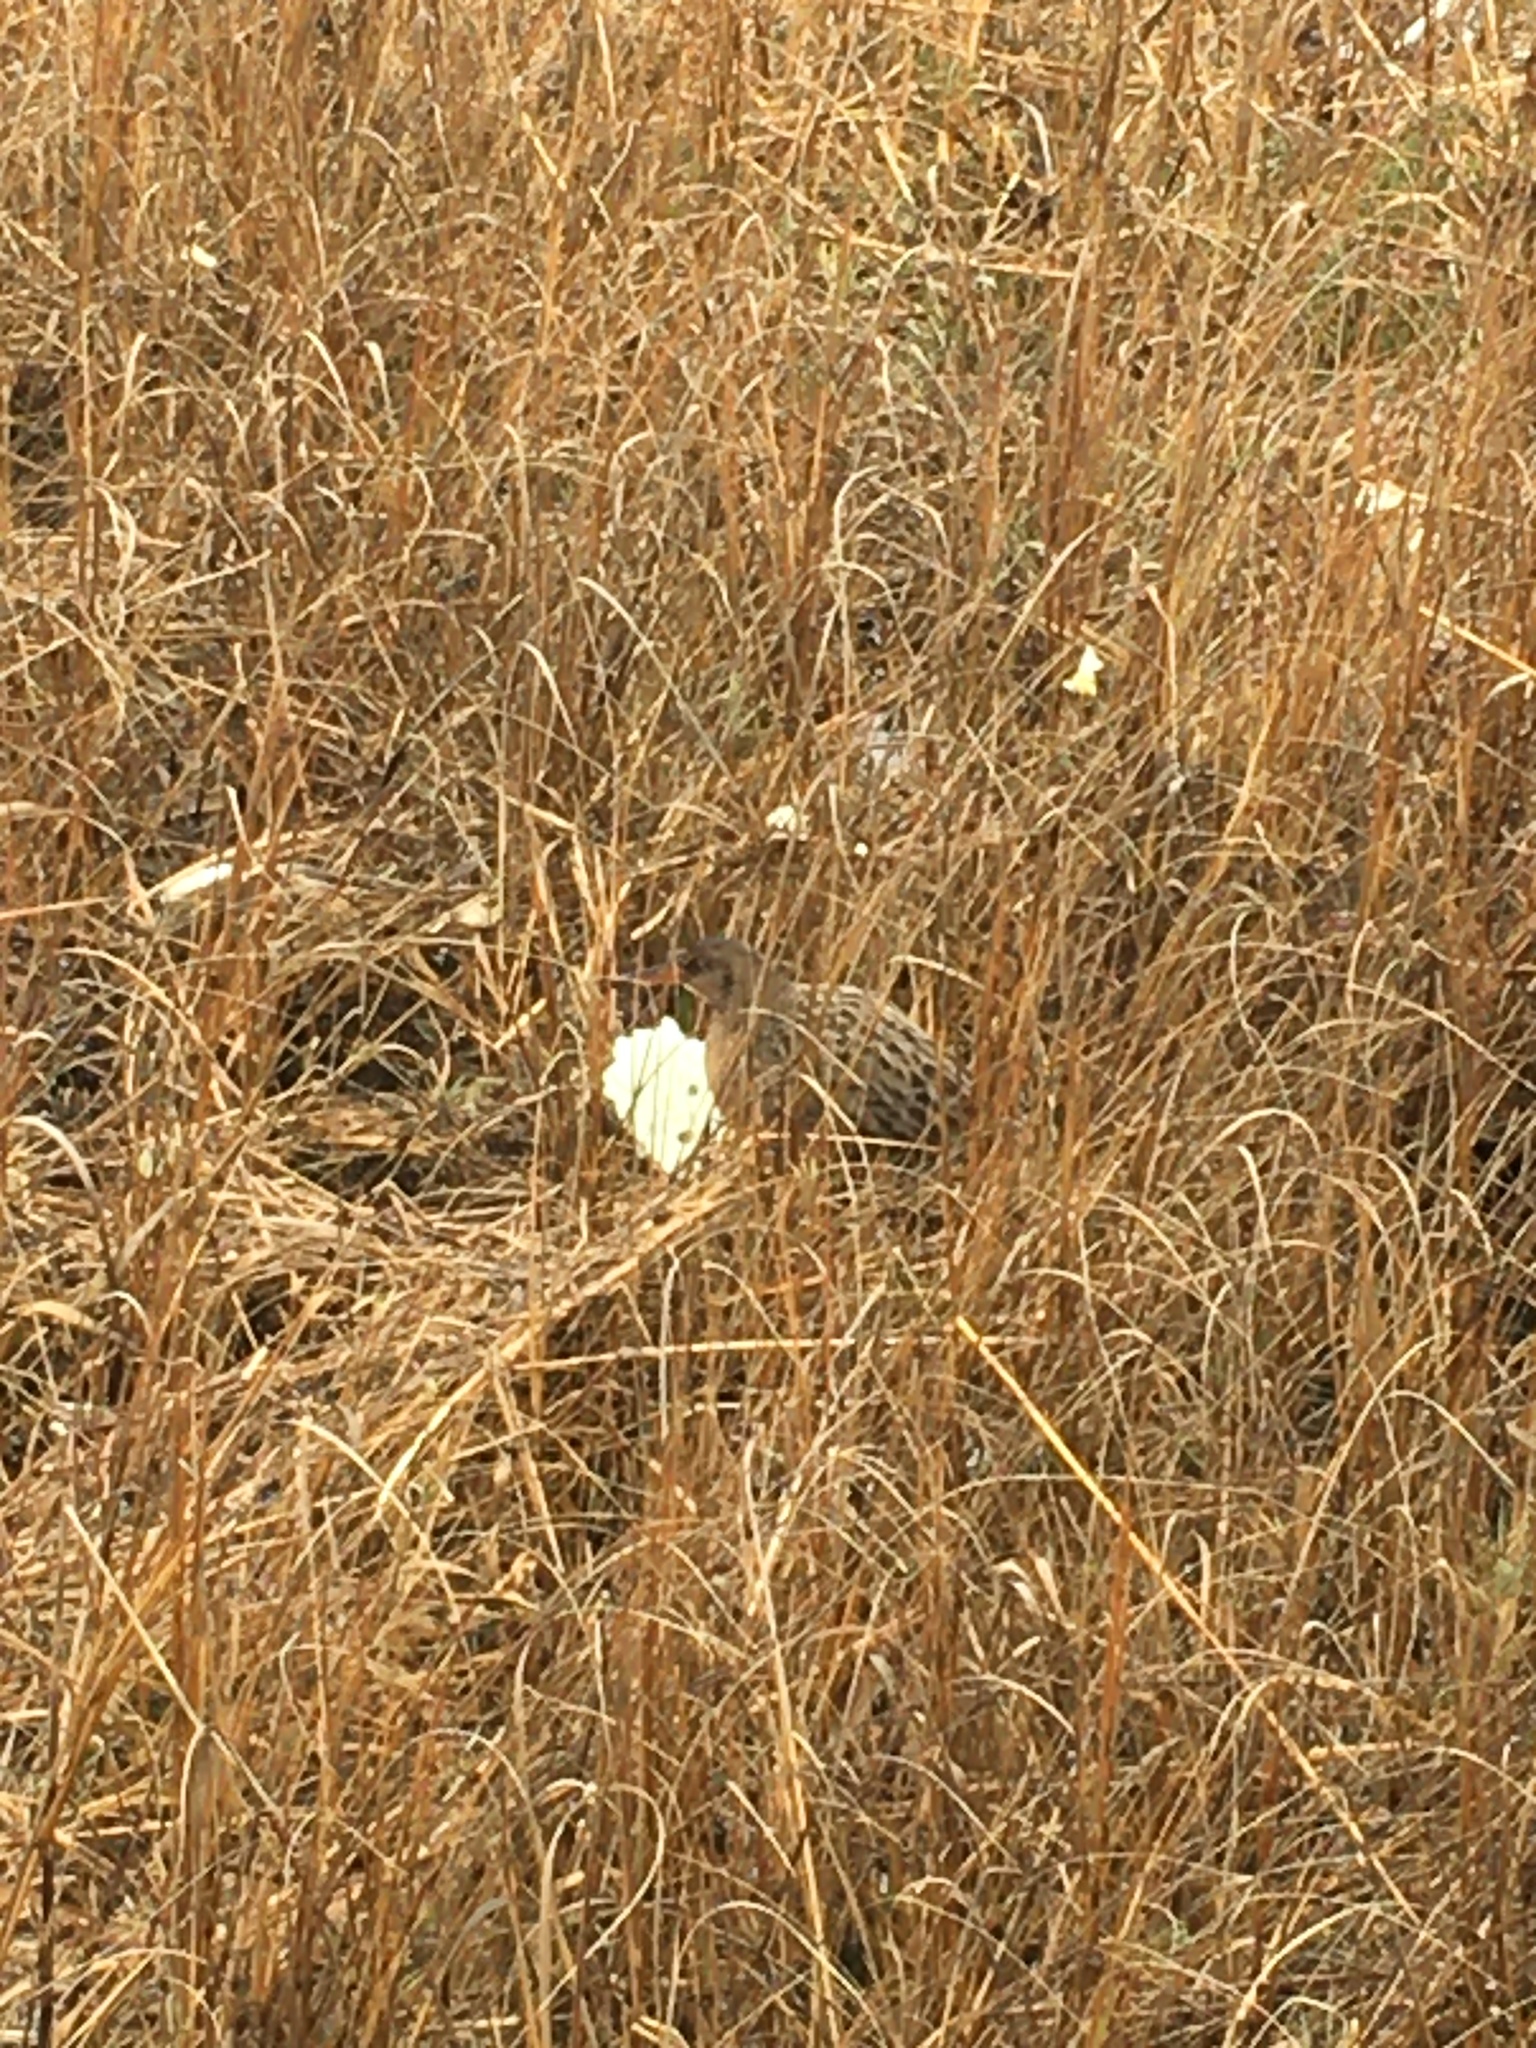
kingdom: Animalia
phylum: Chordata
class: Aves
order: Gruiformes
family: Rallidae
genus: Rallus
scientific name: Rallus obsoletus
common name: Ridgway's rail
